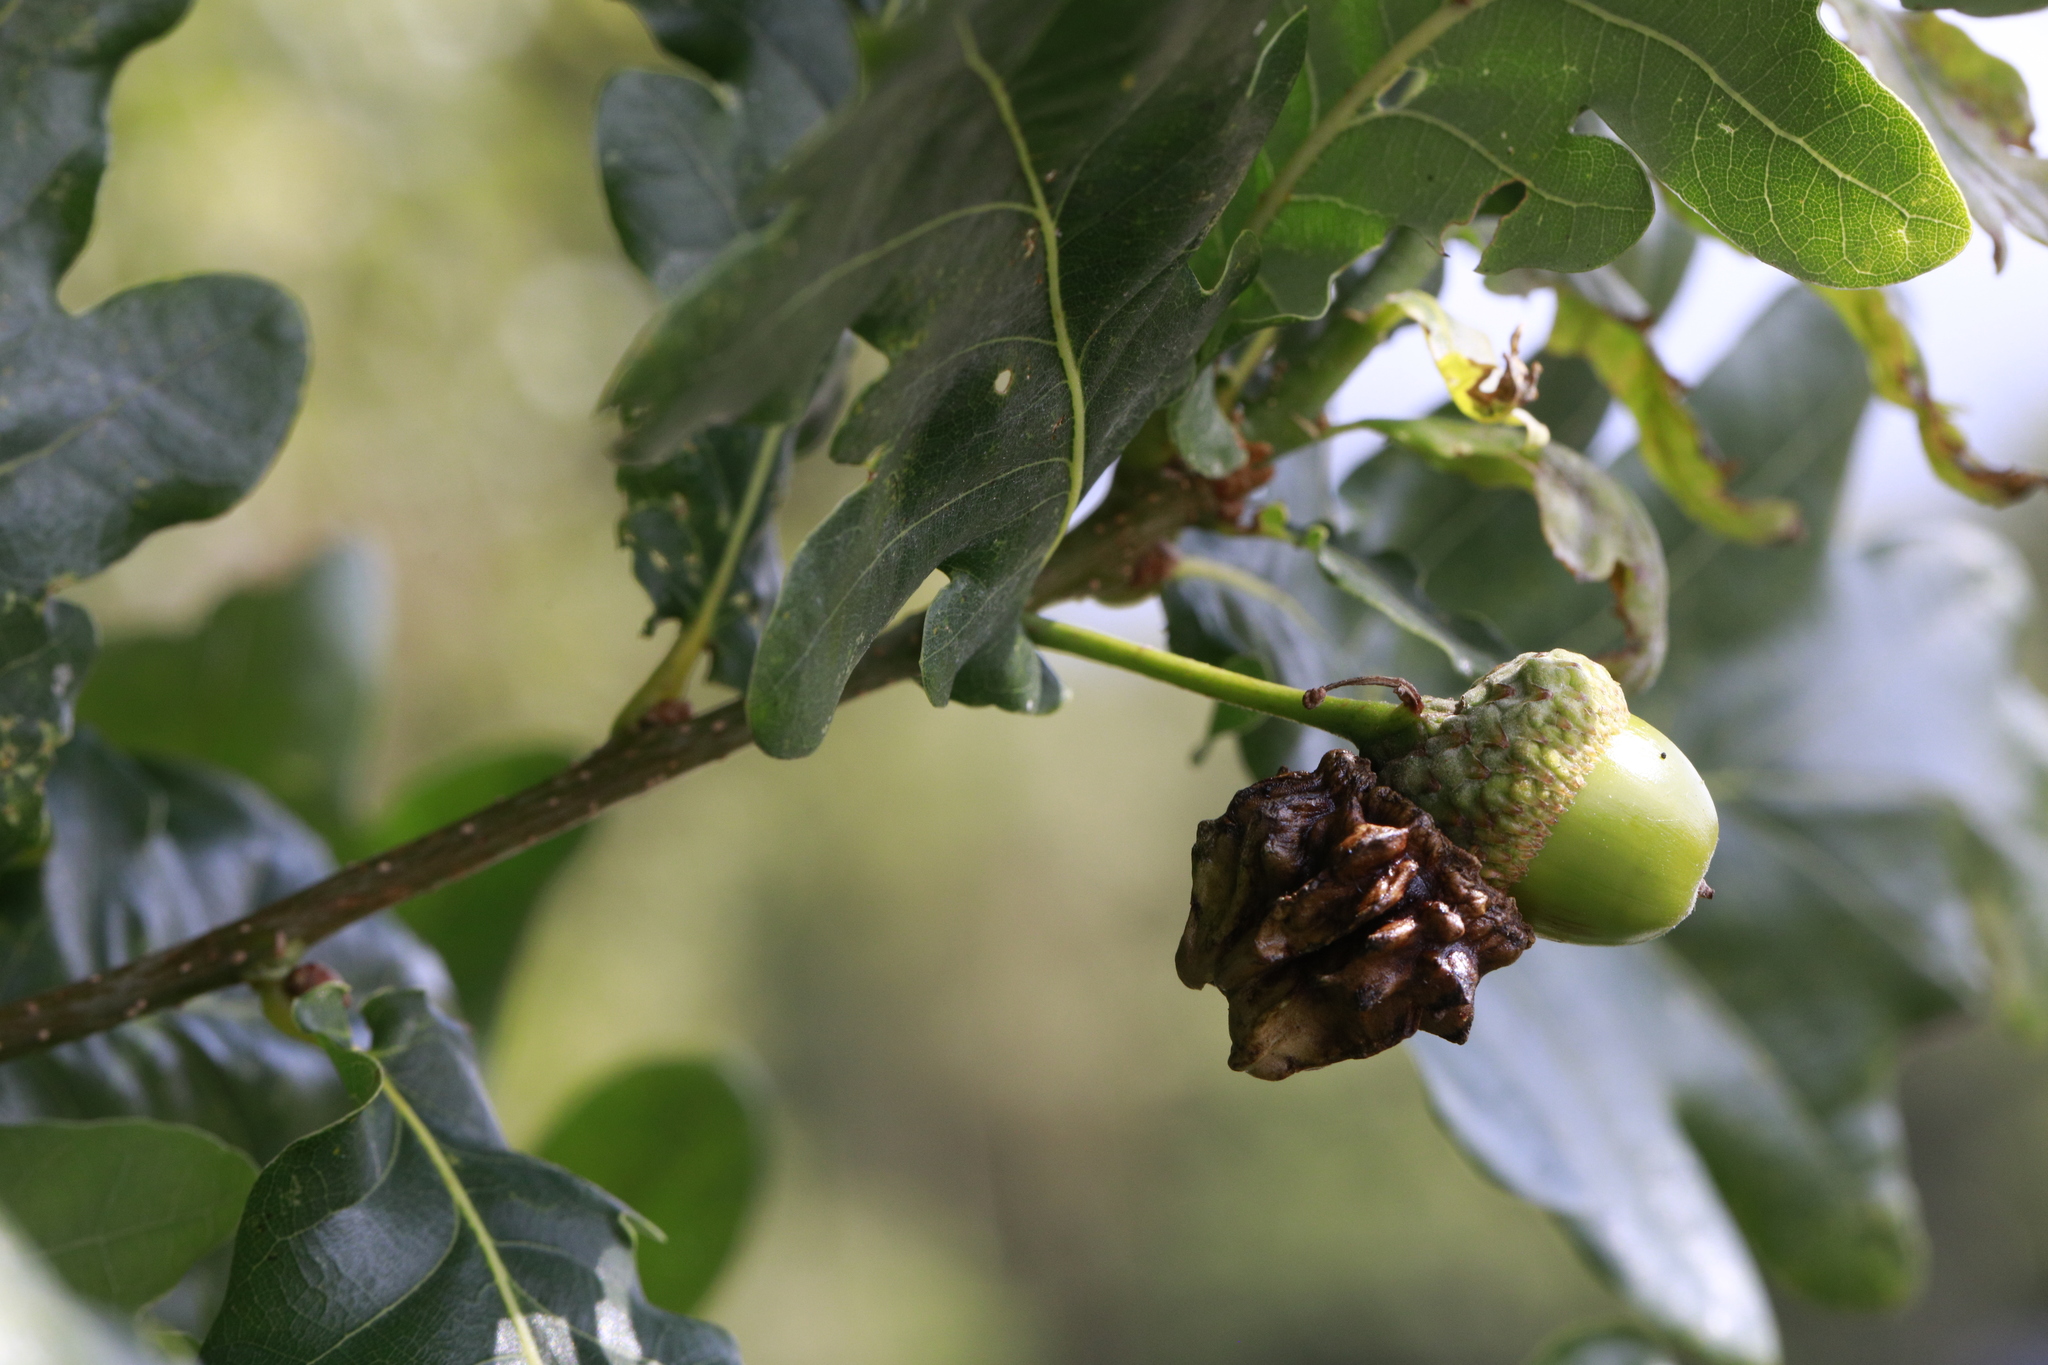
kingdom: Animalia
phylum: Arthropoda
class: Insecta
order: Hymenoptera
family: Cynipidae
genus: Andricus
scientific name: Andricus quercuscalicis
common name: Knopper gall
